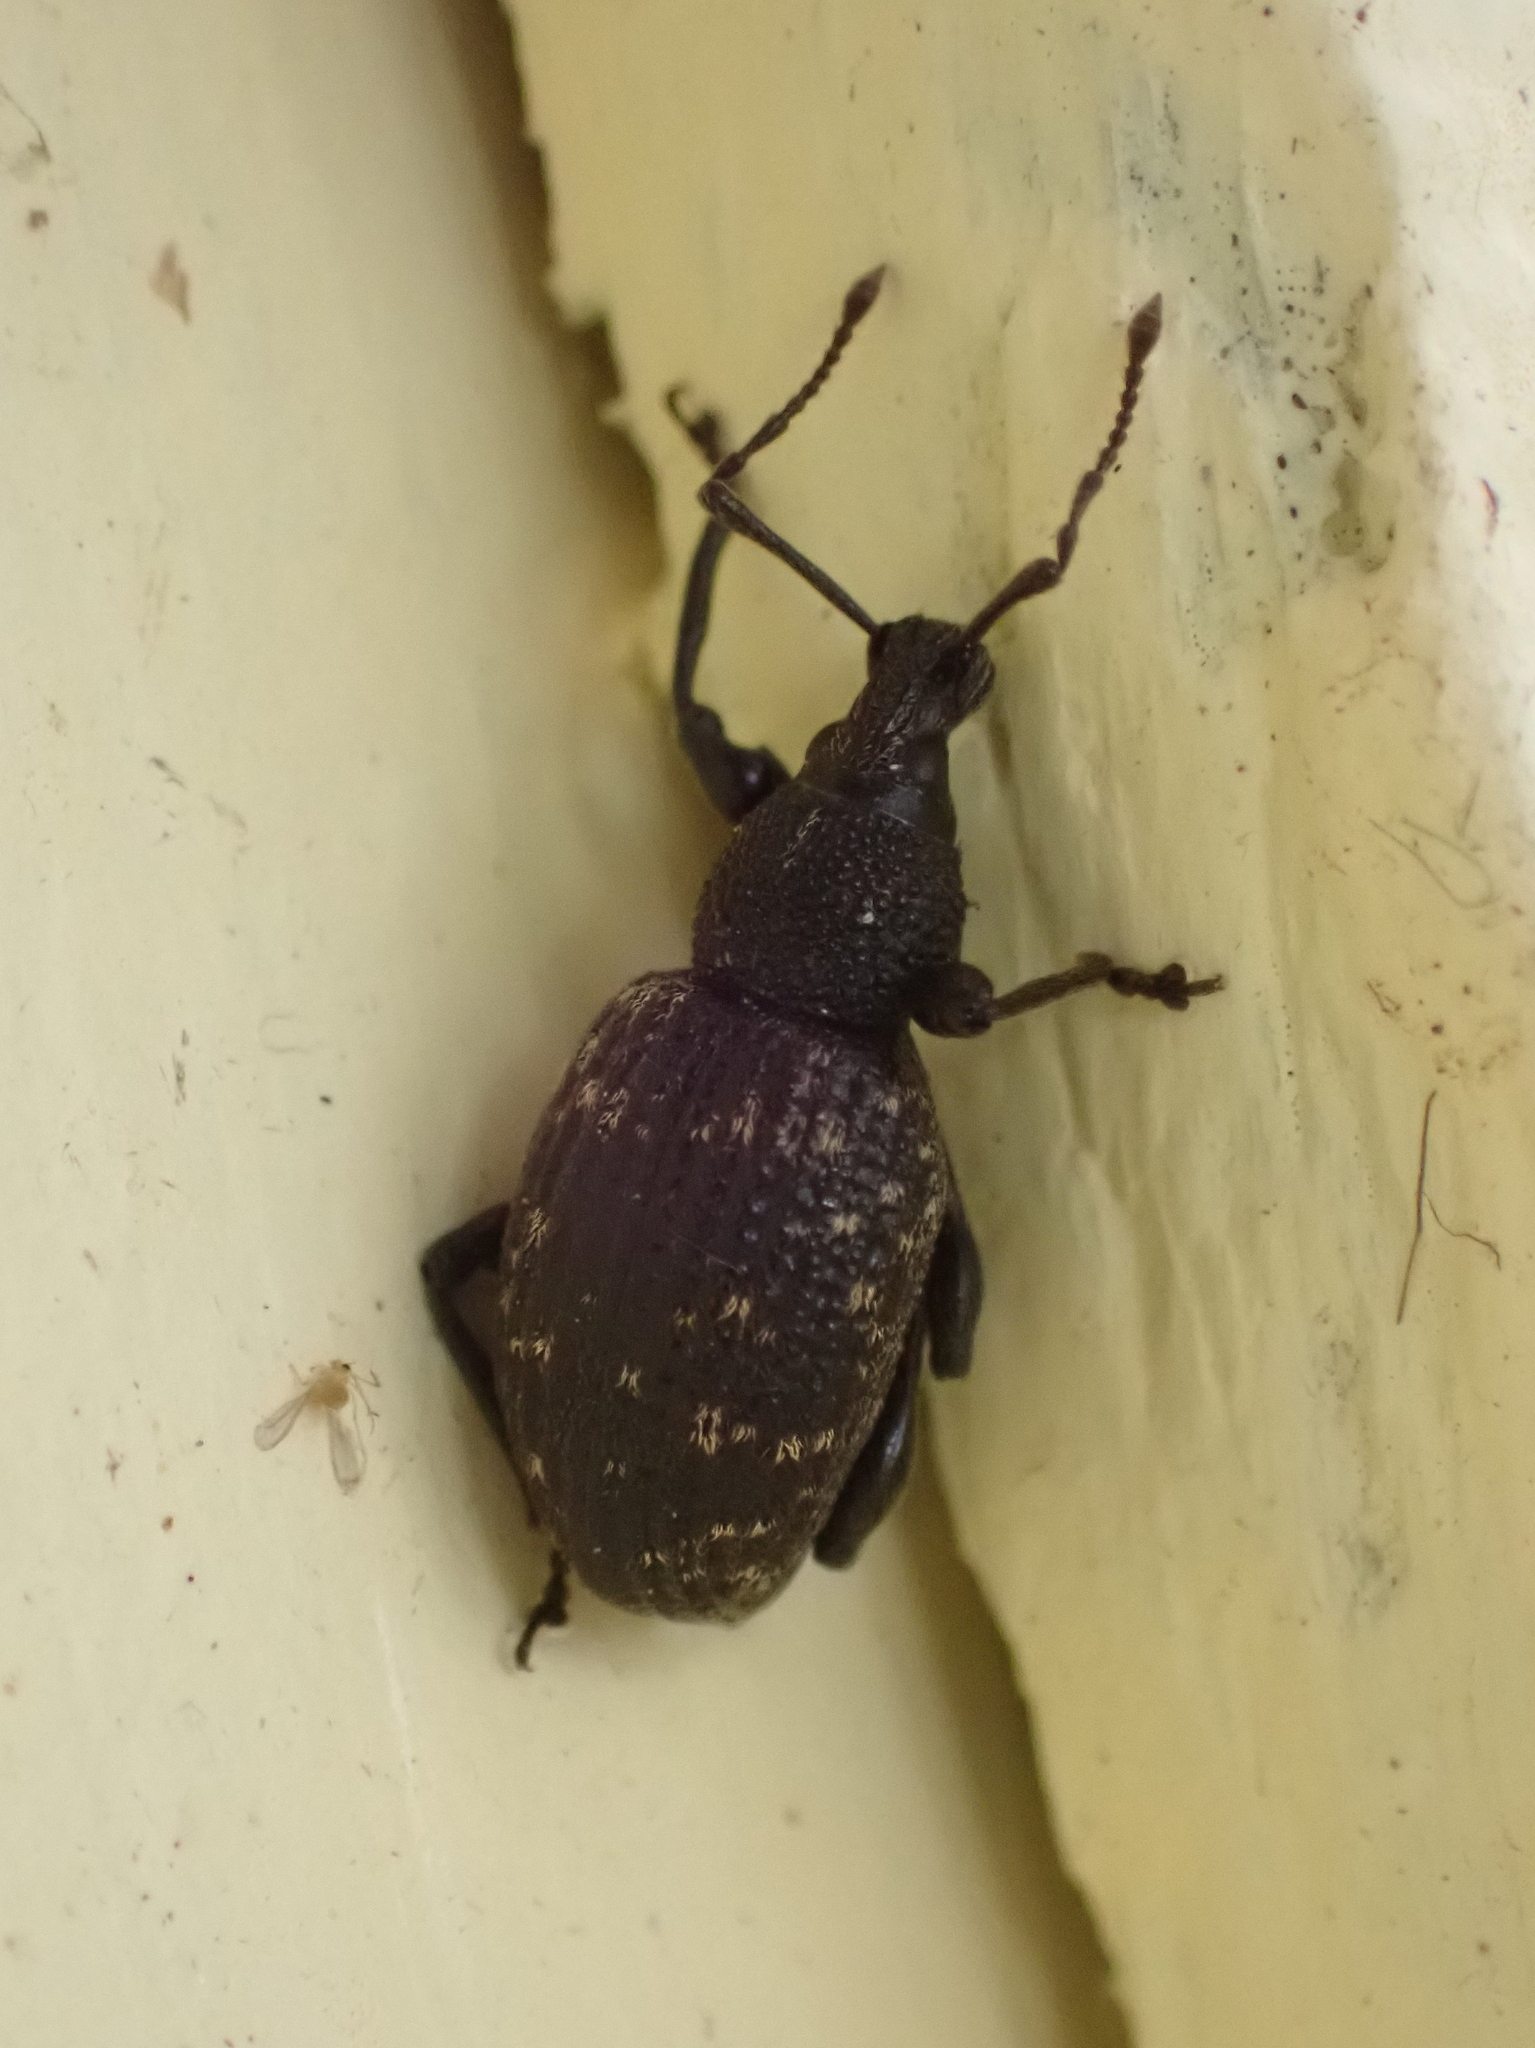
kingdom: Animalia
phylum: Arthropoda
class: Insecta
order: Coleoptera
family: Curculionidae
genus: Otiorhynchus
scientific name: Otiorhynchus sulcatus
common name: Black vine weevil
